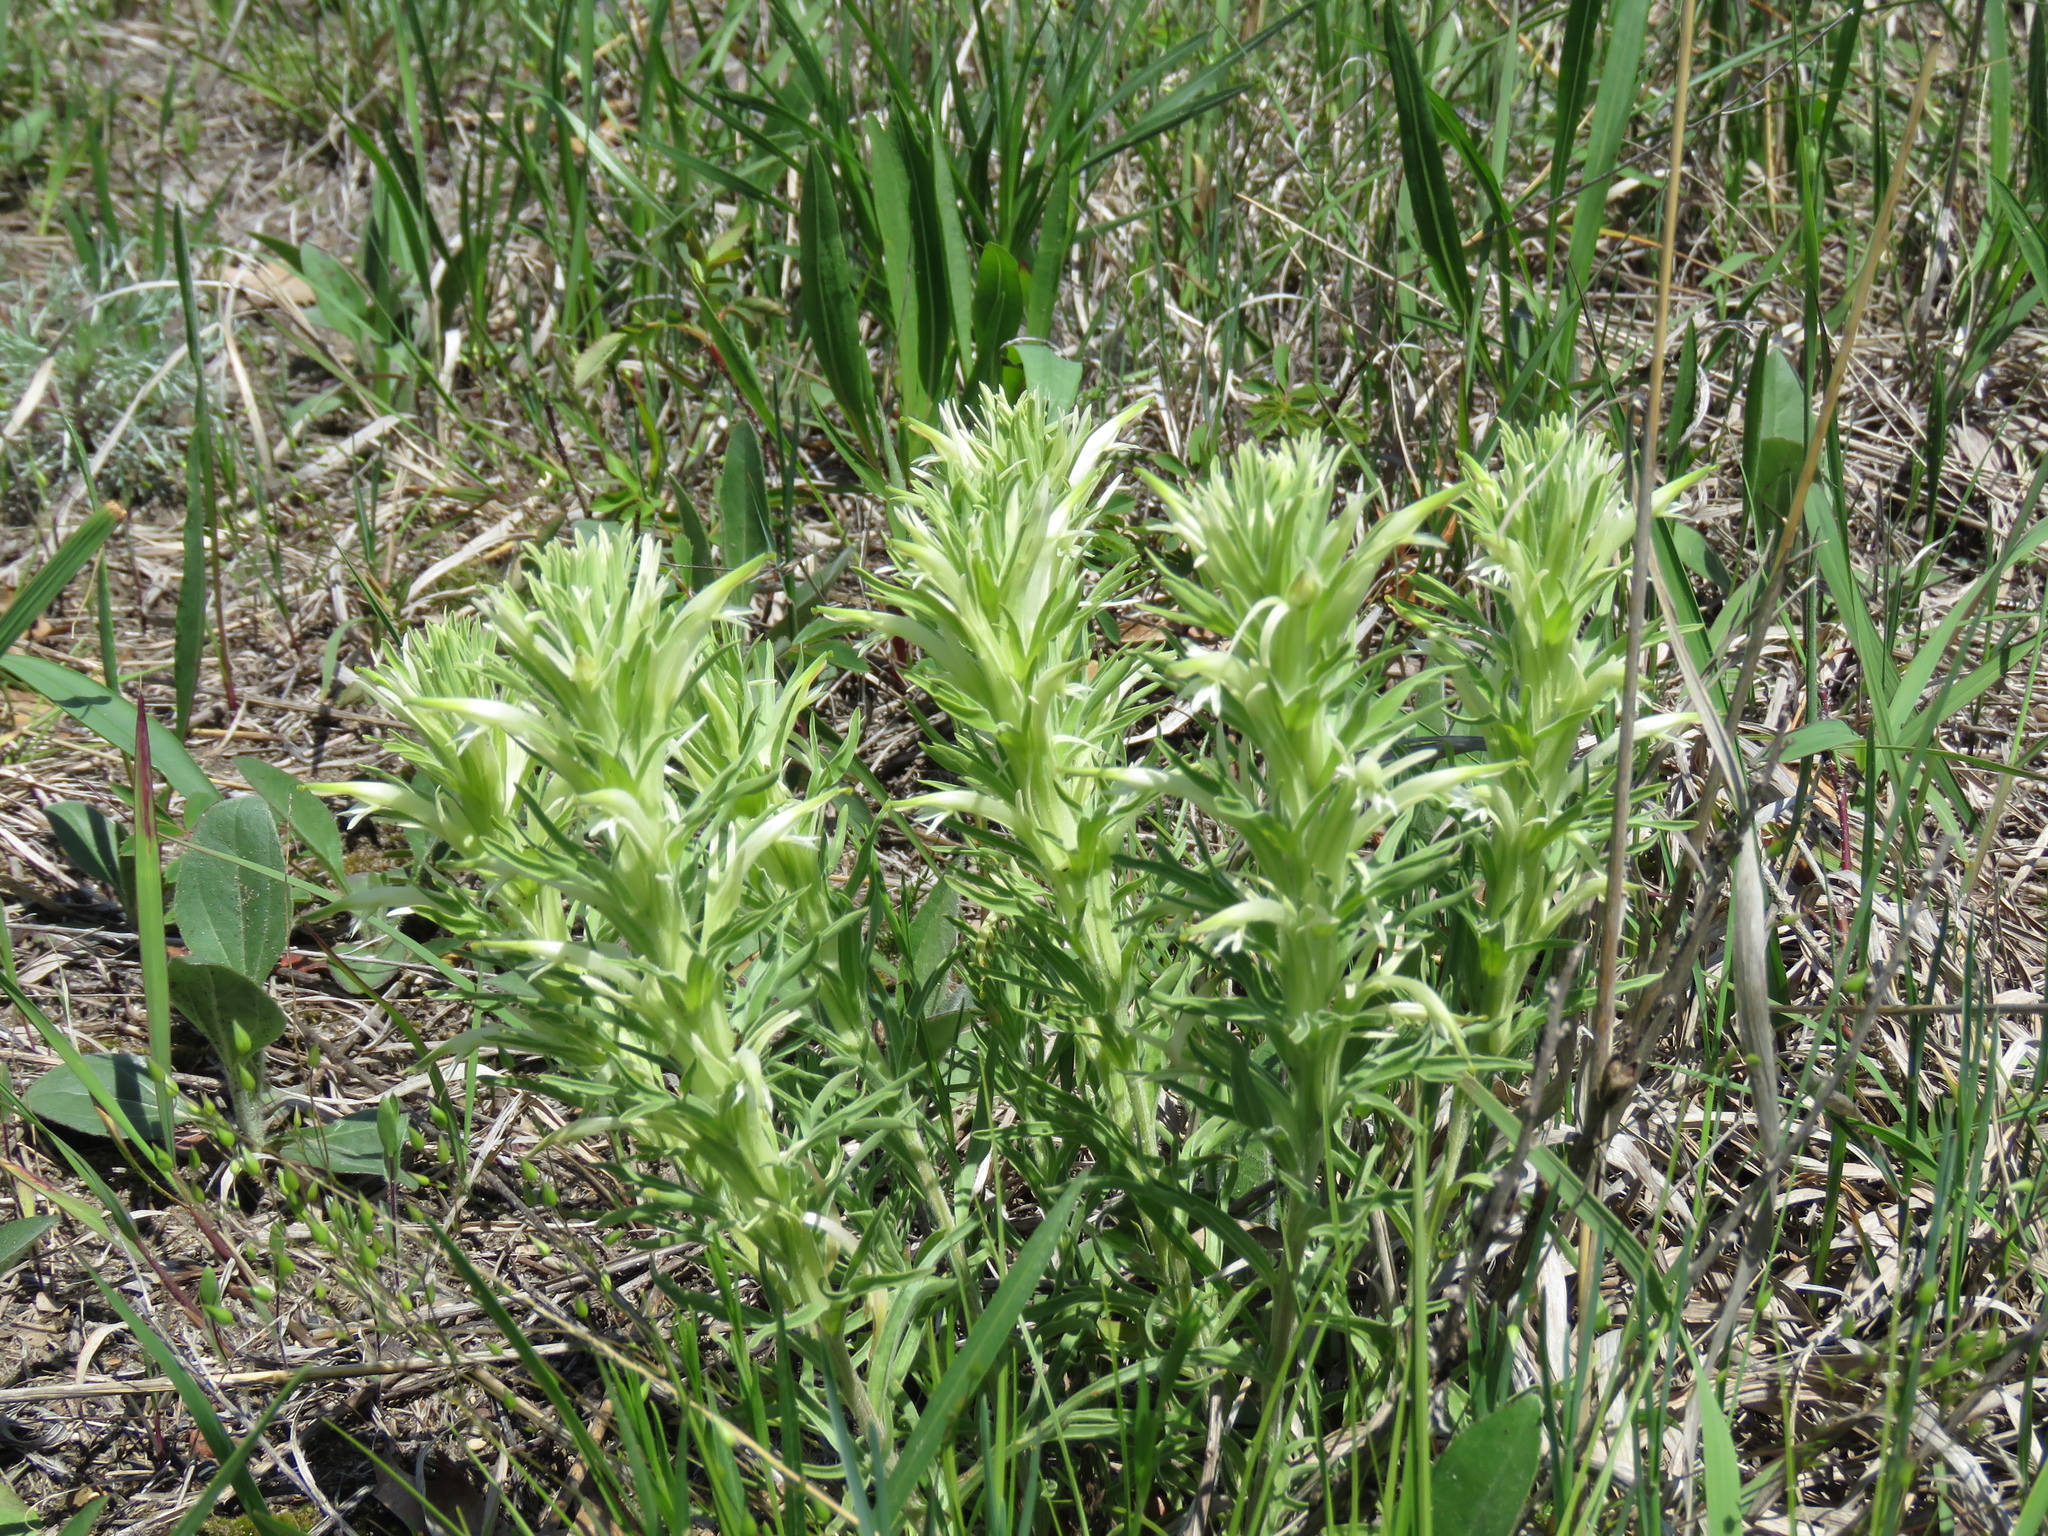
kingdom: Plantae
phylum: Tracheophyta
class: Magnoliopsida
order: Lamiales
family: Orobanchaceae
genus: Castilleja
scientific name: Castilleja sessiliflora
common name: Downy paintbrush
